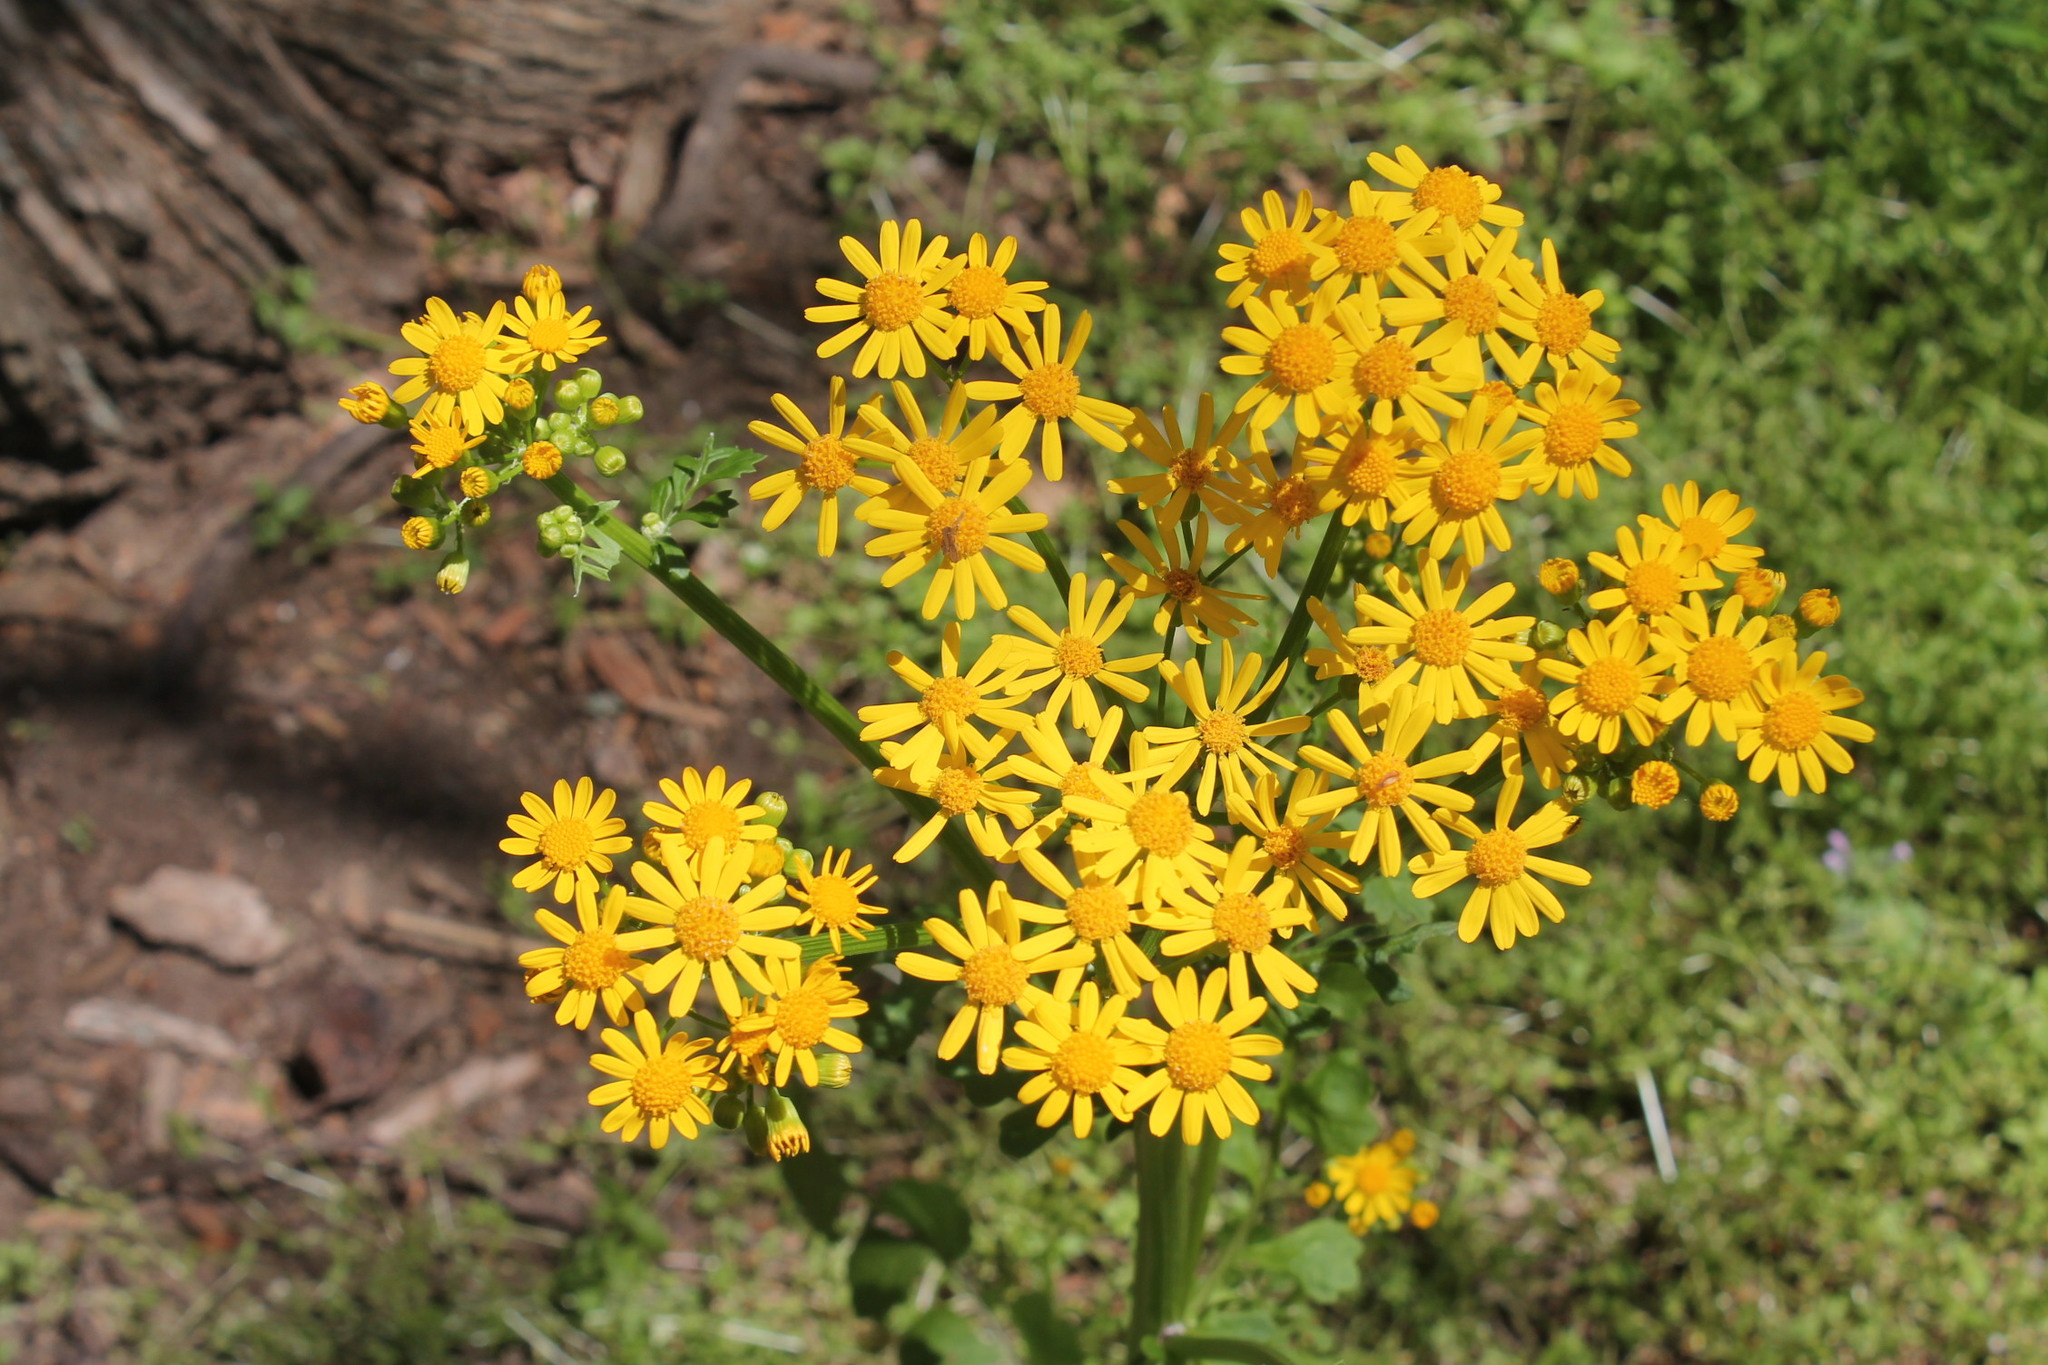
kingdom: Plantae
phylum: Tracheophyta
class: Magnoliopsida
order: Asterales
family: Asteraceae
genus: Packera
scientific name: Packera glabella
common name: Butterweed
